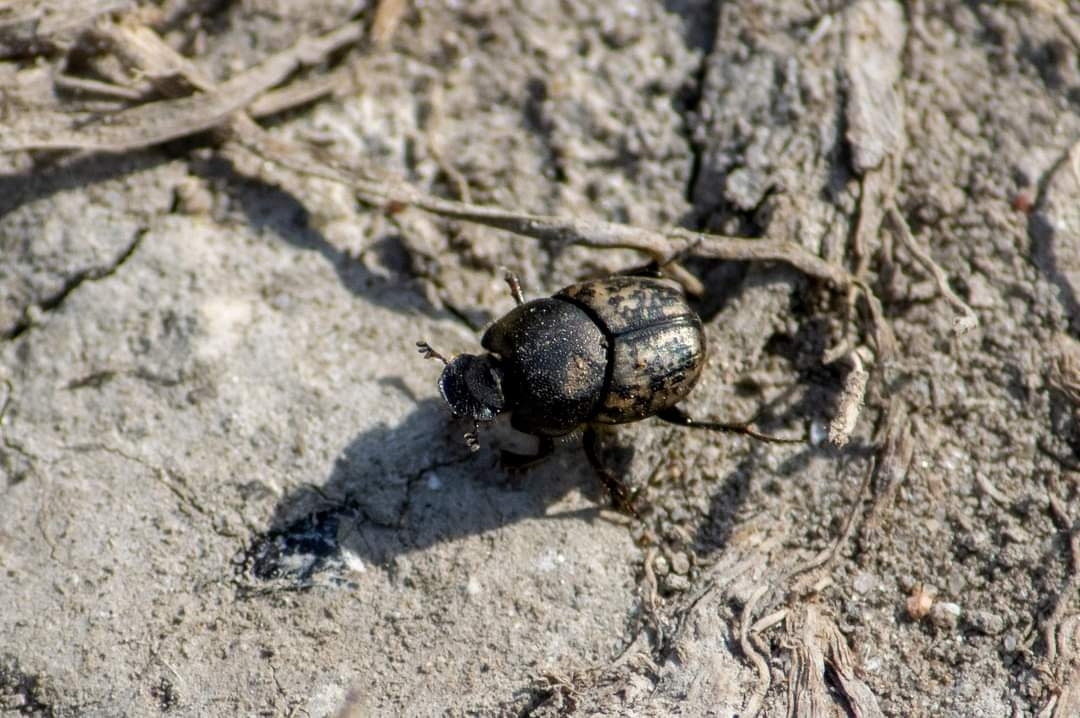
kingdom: Animalia
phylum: Arthropoda
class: Insecta
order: Coleoptera
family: Scarabaeidae
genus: Onthophagus
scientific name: Onthophagus nuchicornis
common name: Mottled dung beetle
